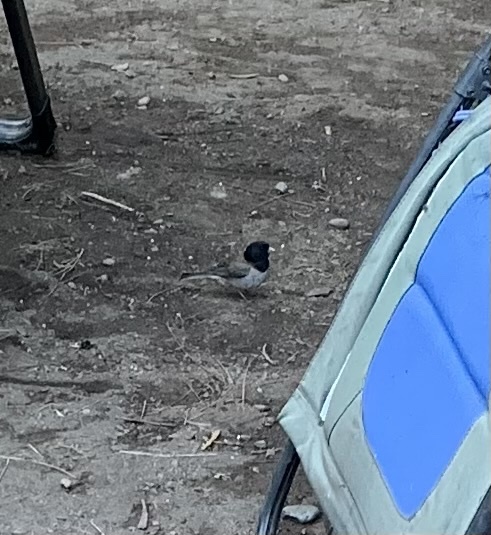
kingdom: Animalia
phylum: Chordata
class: Aves
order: Passeriformes
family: Passerellidae
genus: Junco
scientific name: Junco hyemalis
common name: Dark-eyed junco
